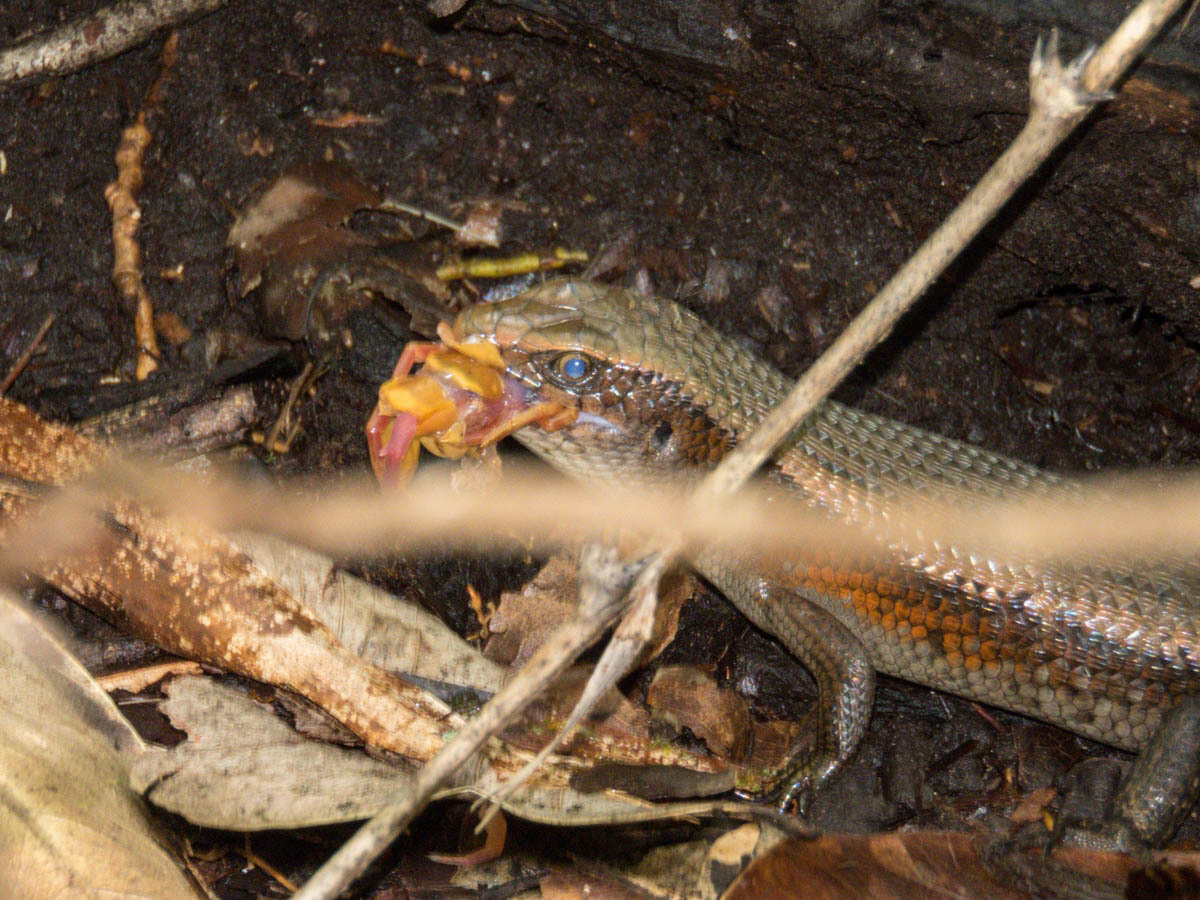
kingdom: Animalia
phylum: Chordata
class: Squamata
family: Scincidae
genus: Eutropis
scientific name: Eutropis multifasciata
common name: Common mabuya
